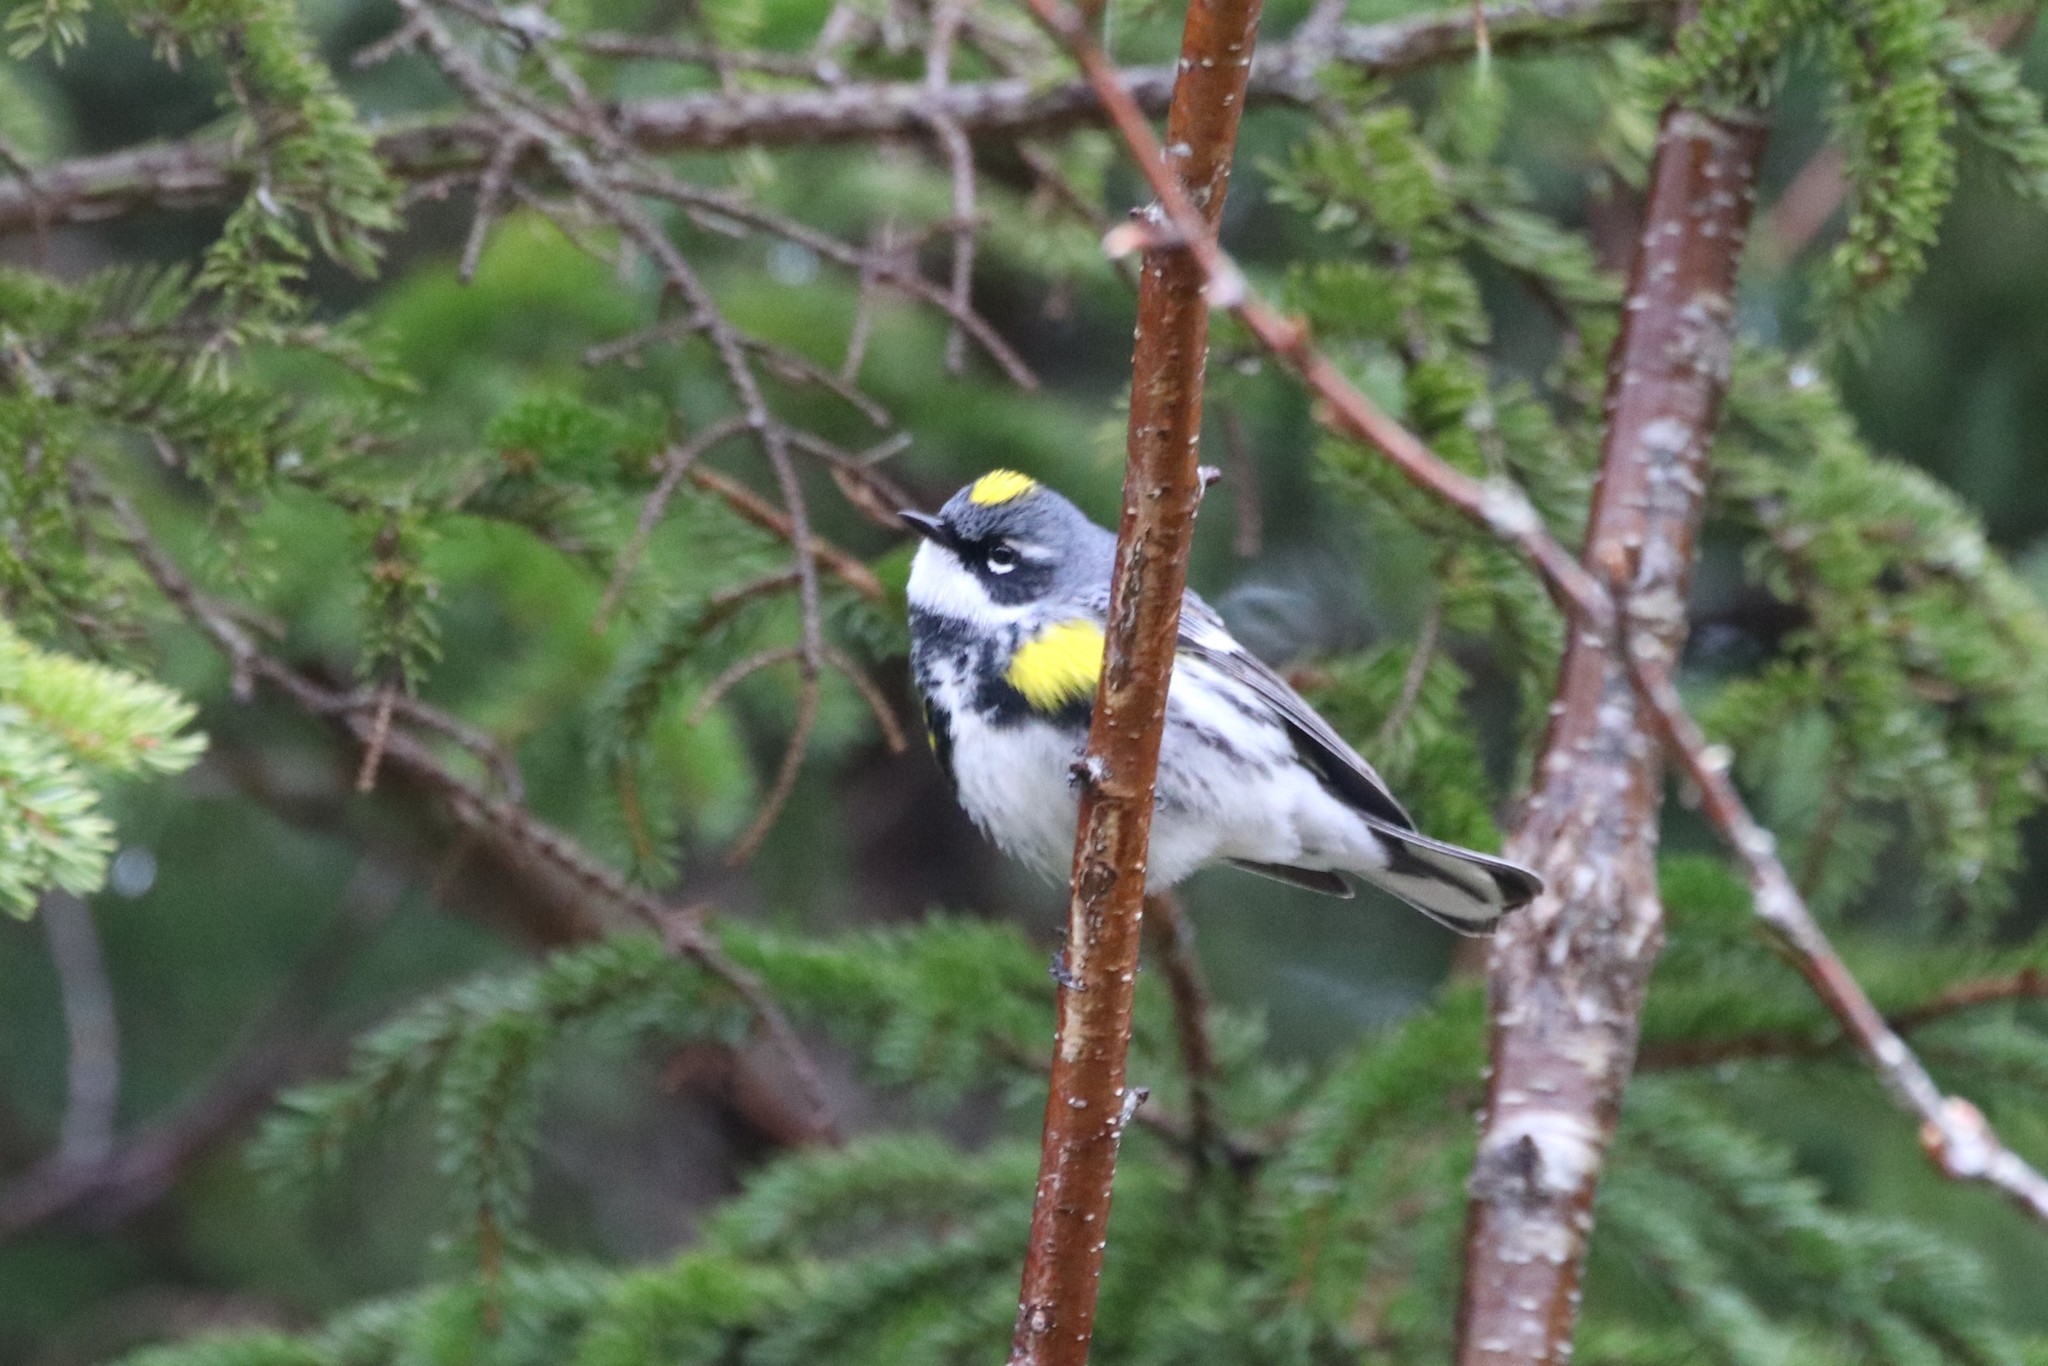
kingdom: Animalia
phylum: Chordata
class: Aves
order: Passeriformes
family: Parulidae
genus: Setophaga
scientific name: Setophaga coronata
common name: Myrtle warbler
